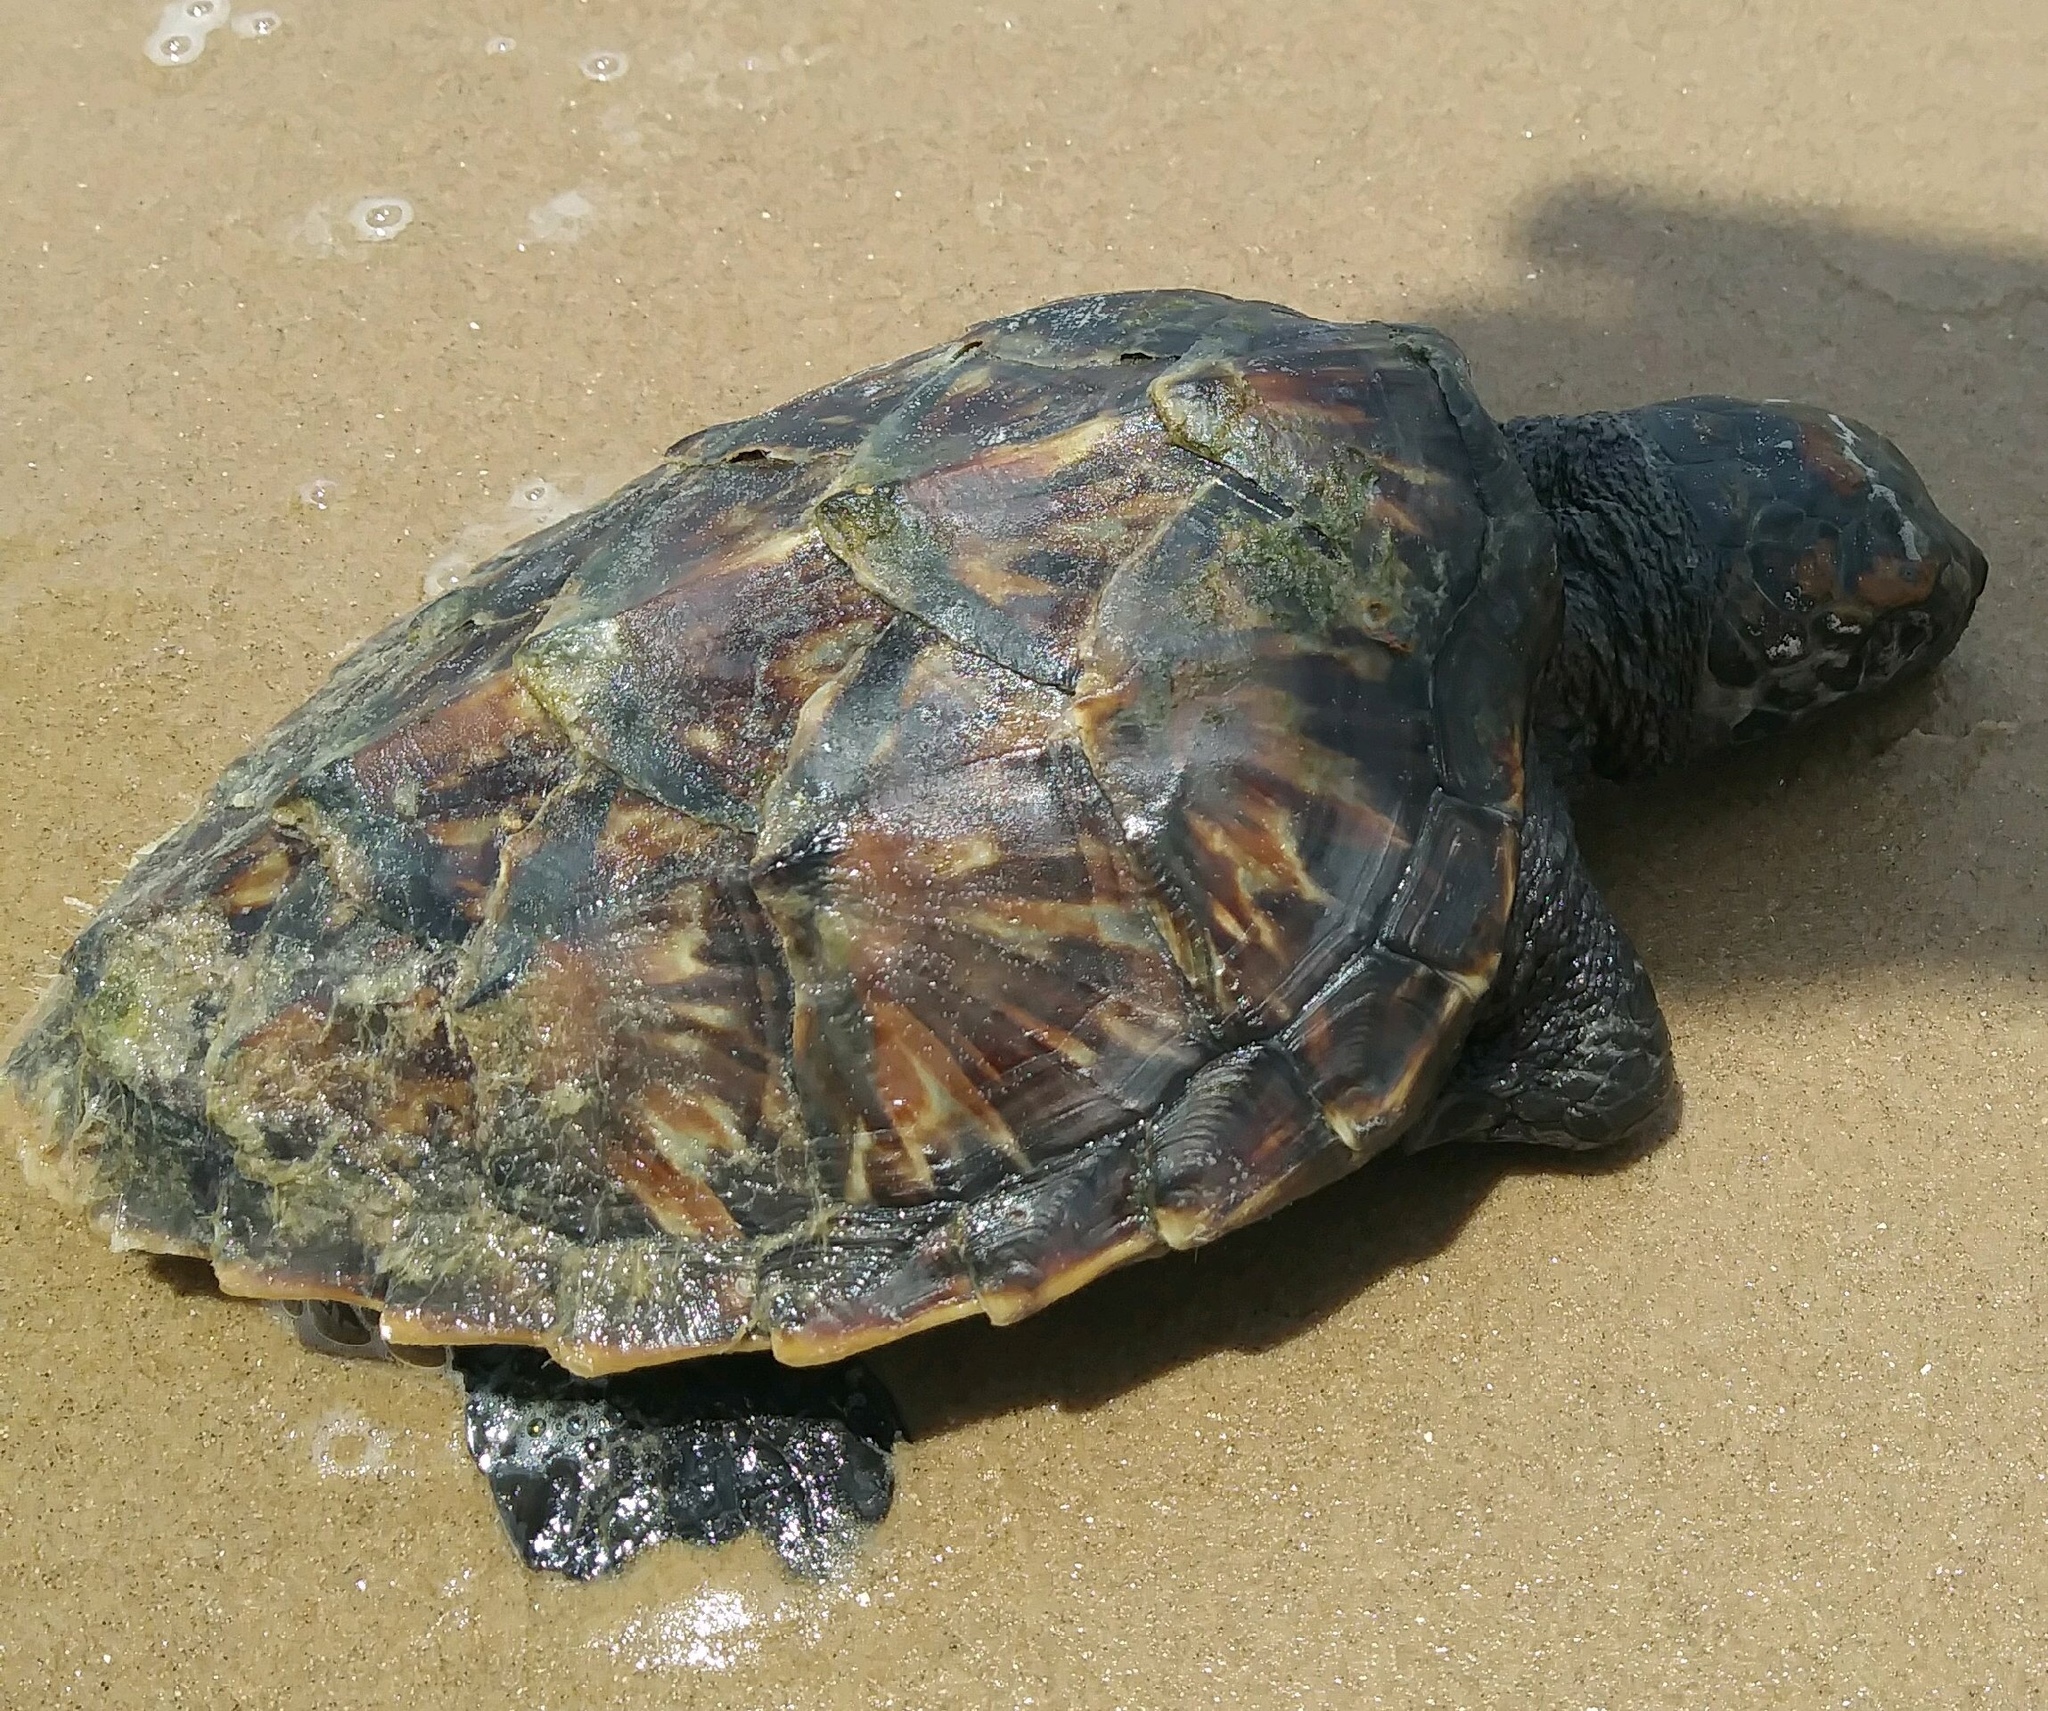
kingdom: Animalia
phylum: Chordata
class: Testudines
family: Cheloniidae
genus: Eretmochelys
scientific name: Eretmochelys imbricata
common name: Hawksbill turtle
